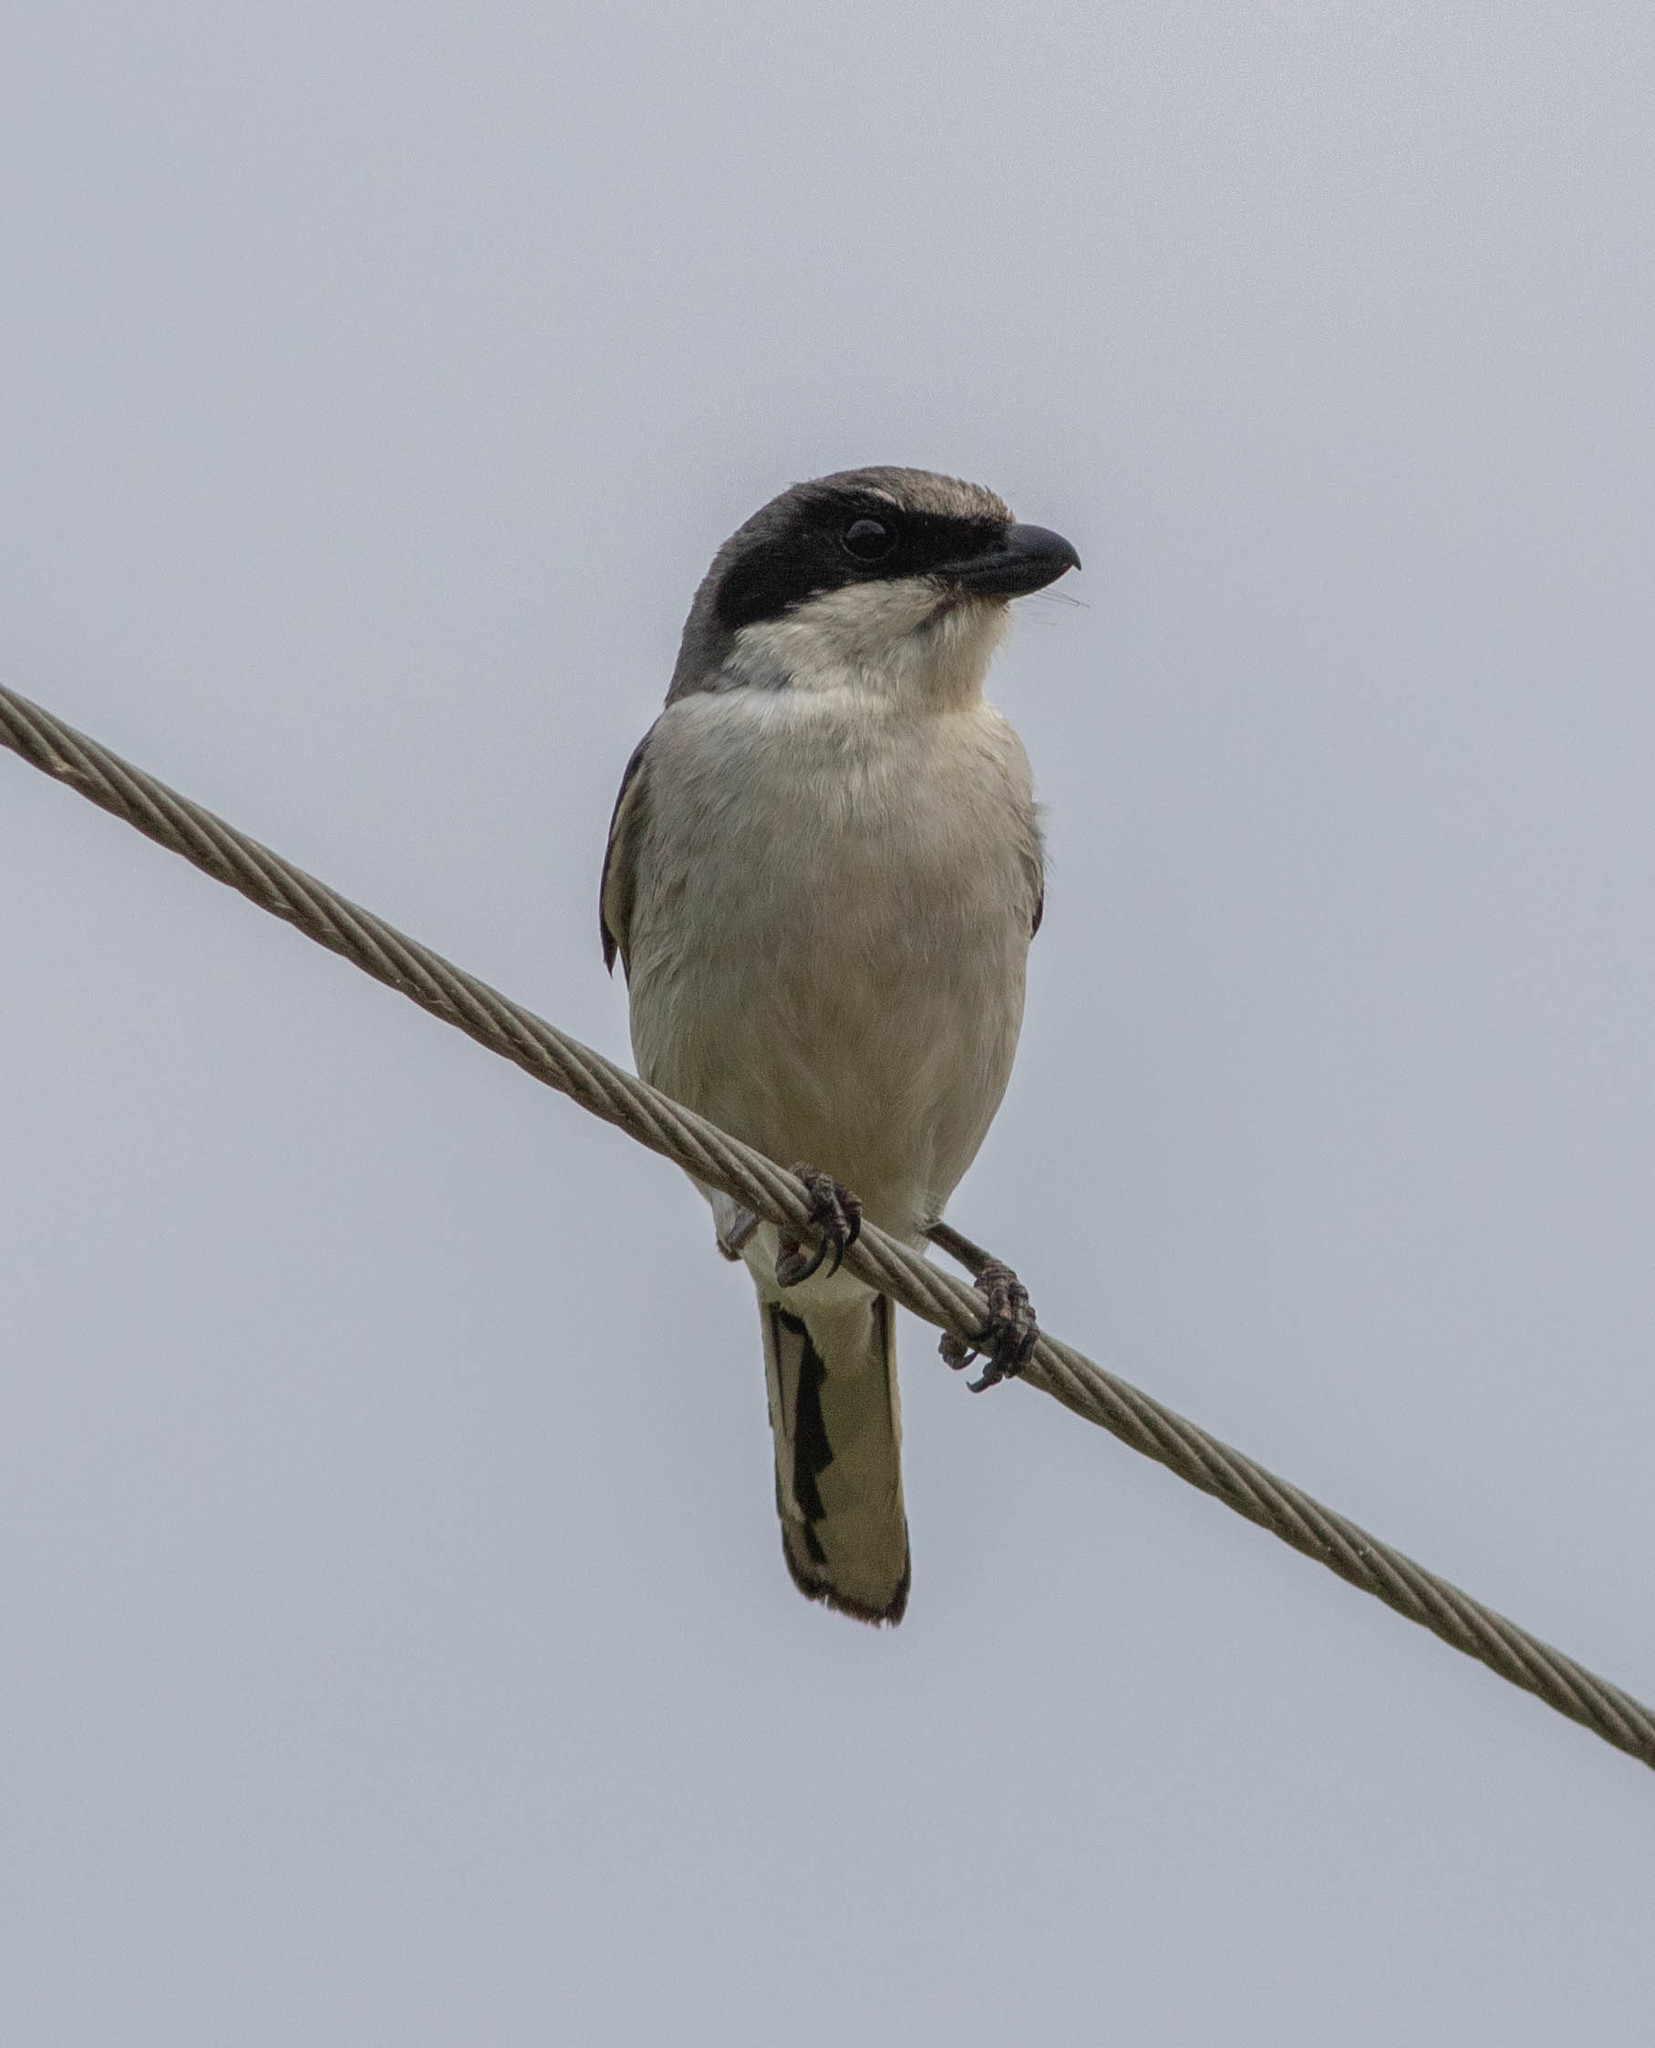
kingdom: Animalia
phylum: Chordata
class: Aves
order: Passeriformes
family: Laniidae
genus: Lanius
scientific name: Lanius ludovicianus
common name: Loggerhead shrike
